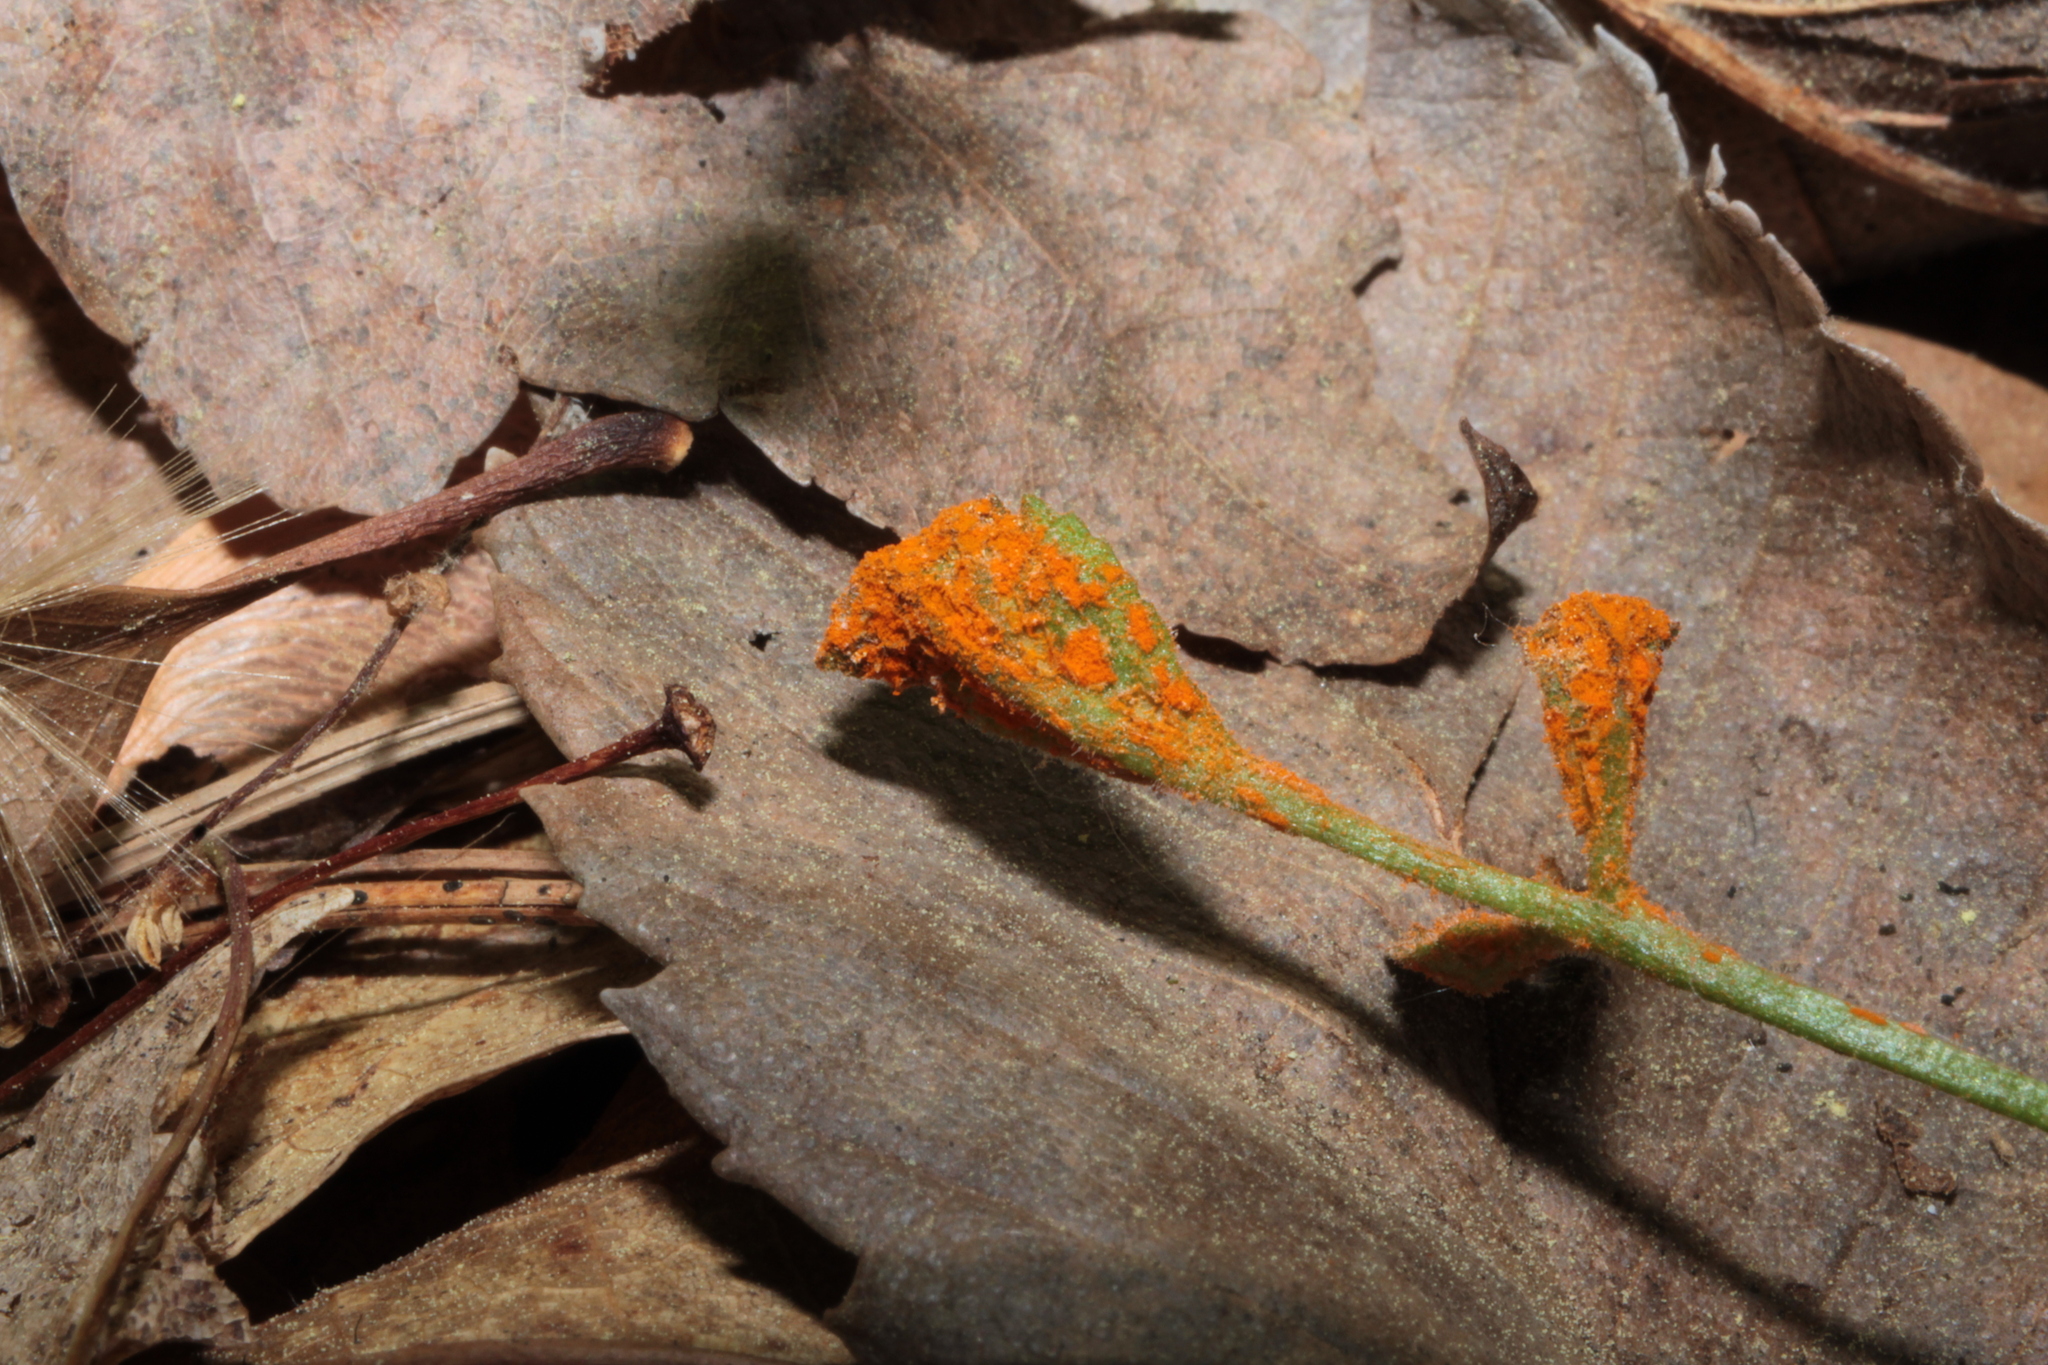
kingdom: Fungi
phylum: Basidiomycota
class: Pucciniomycetes
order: Pucciniales
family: Phragmidiaceae
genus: Arthuriomyces
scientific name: Arthuriomyces peckianus
